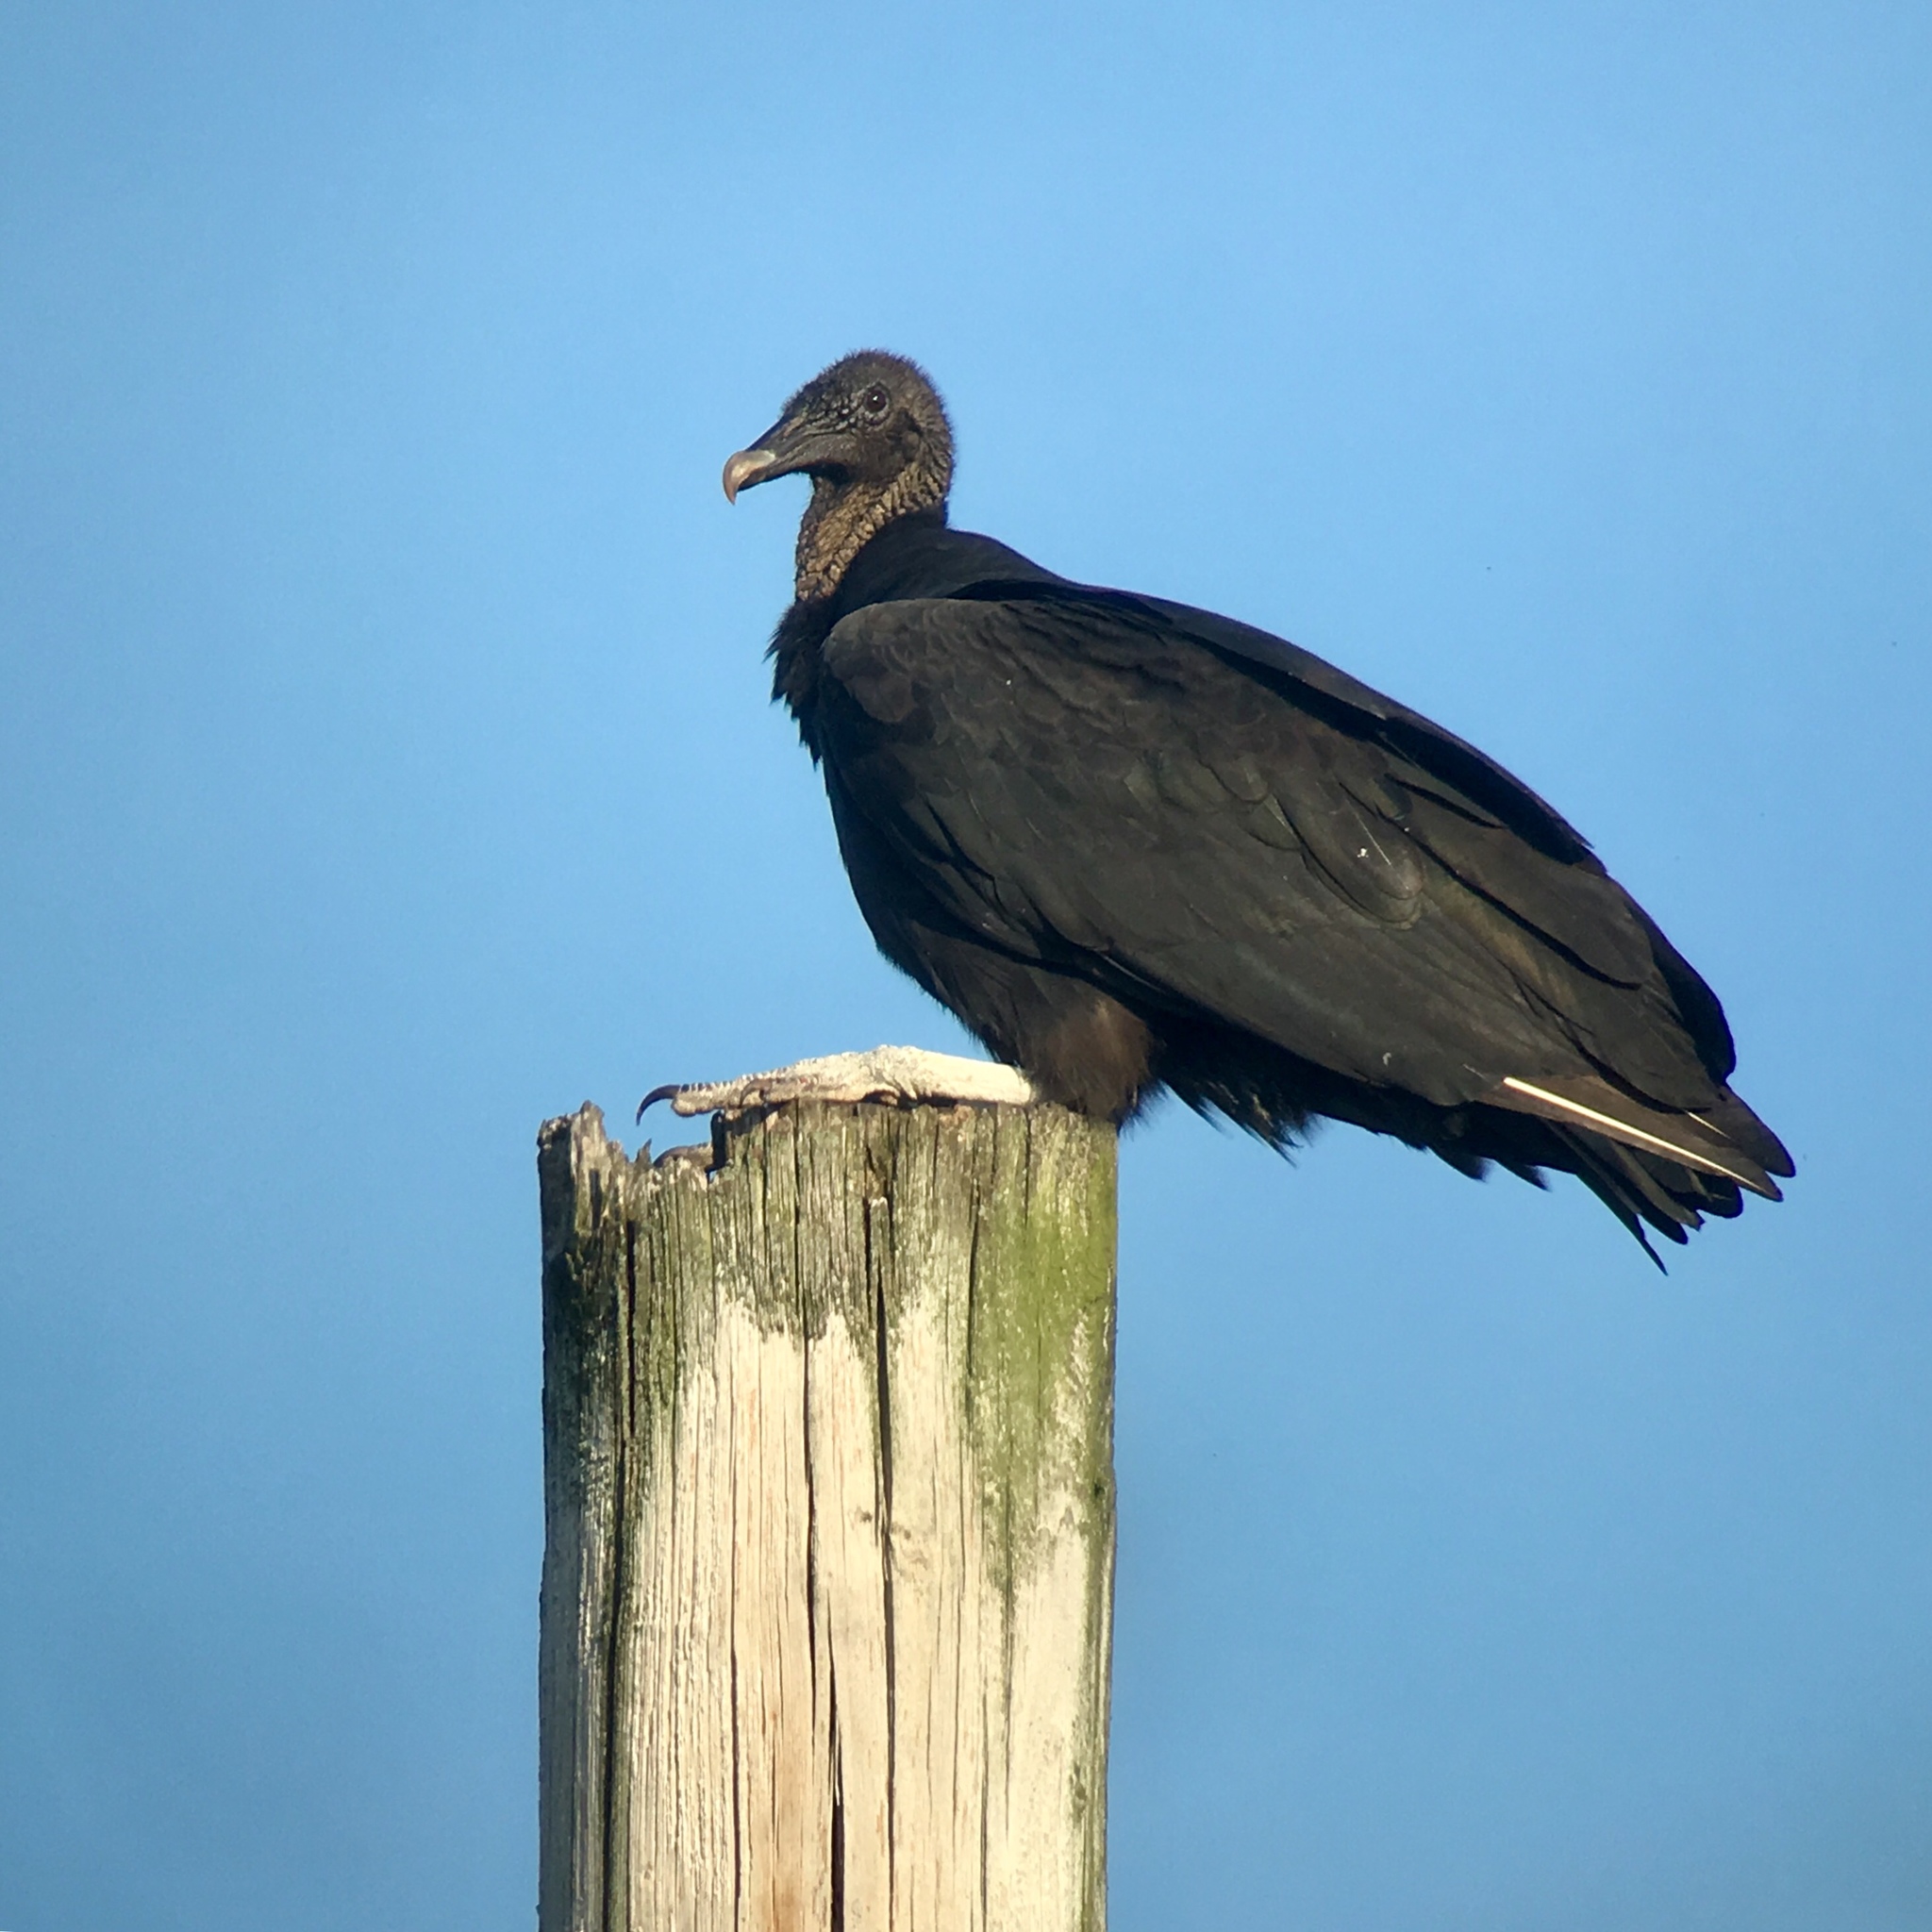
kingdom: Animalia
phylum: Chordata
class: Aves
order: Accipitriformes
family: Cathartidae
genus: Coragyps
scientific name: Coragyps atratus
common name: Black vulture
